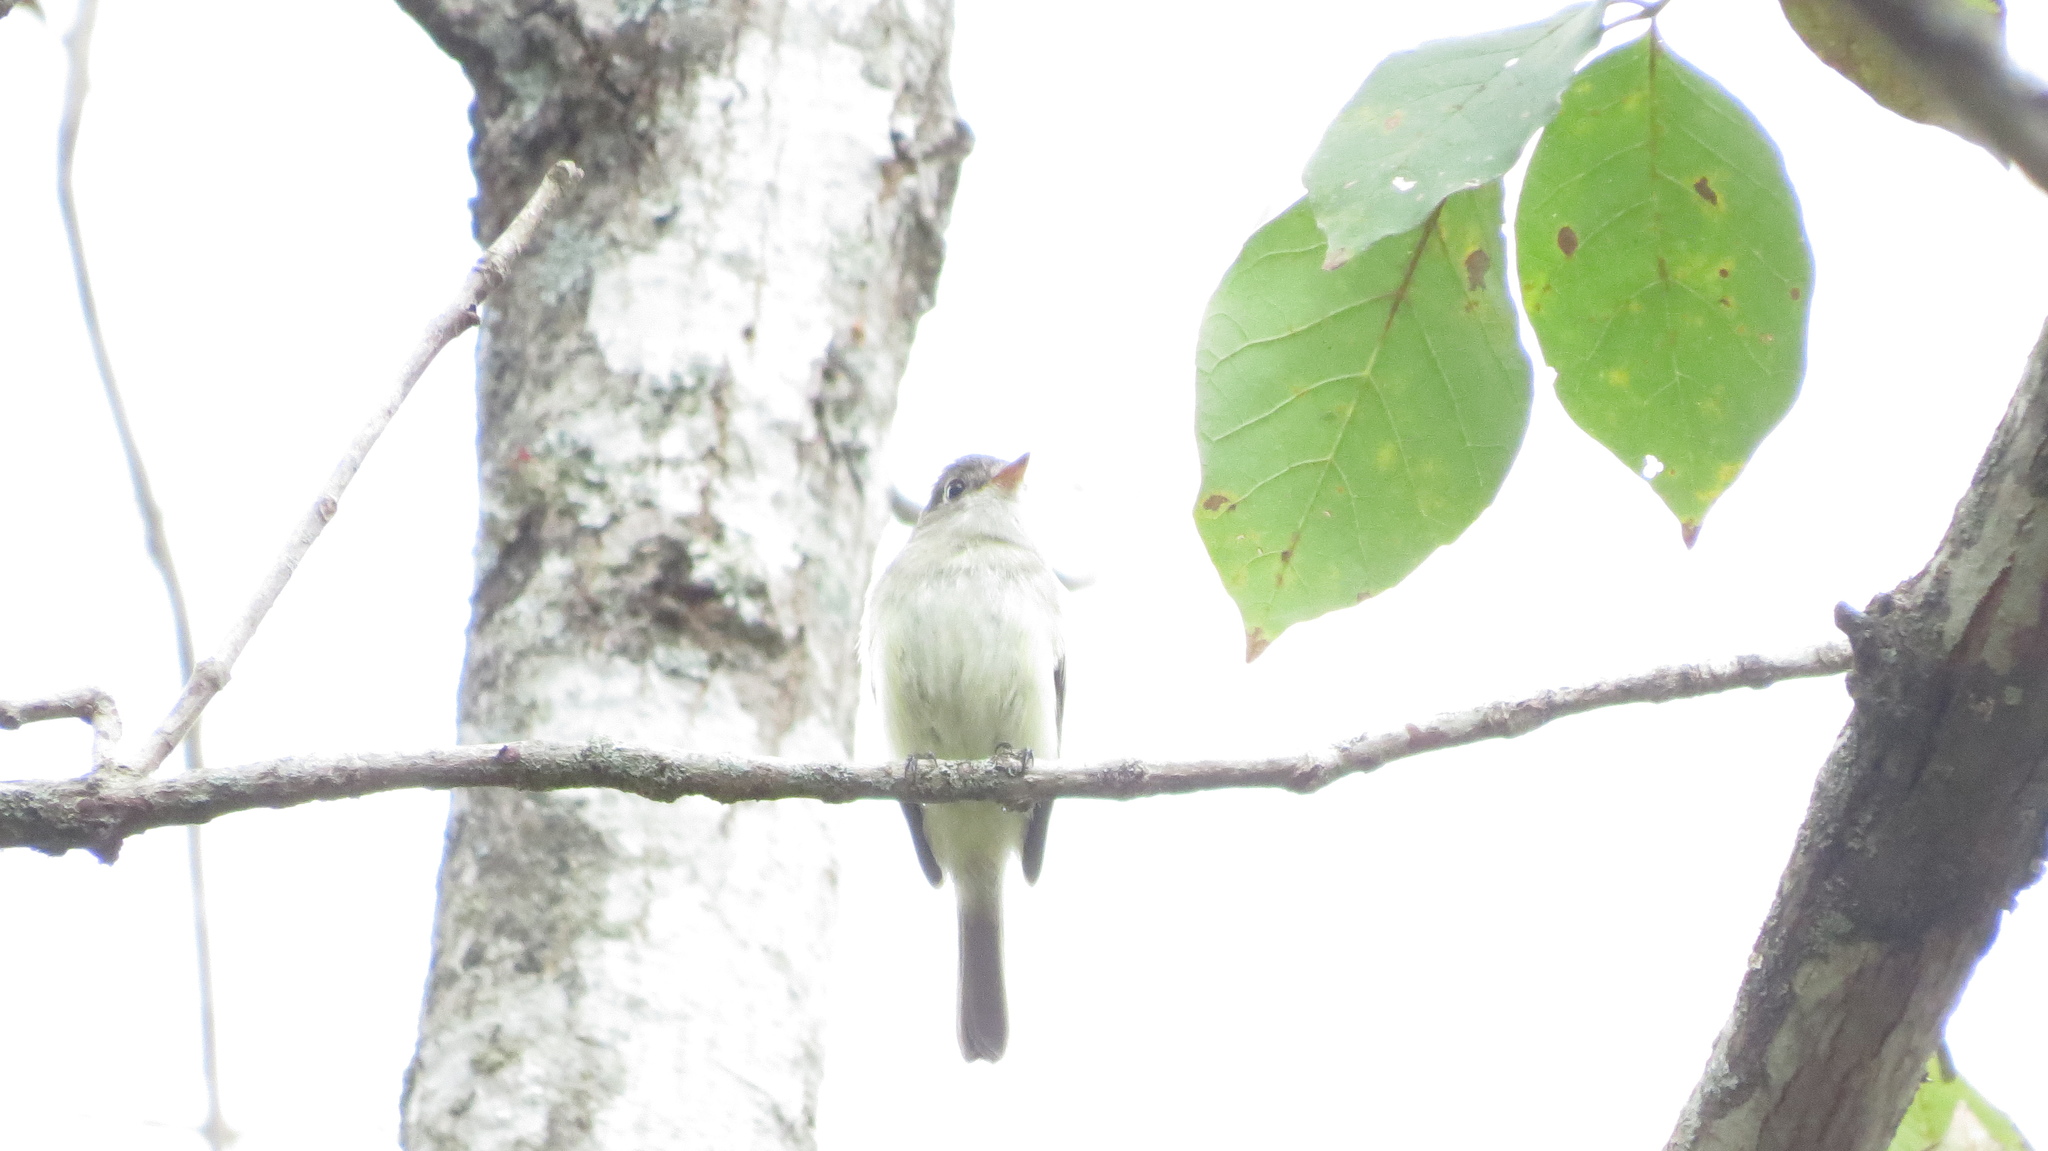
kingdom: Animalia
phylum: Chordata
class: Aves
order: Passeriformes
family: Tyrannidae
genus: Empidonax
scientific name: Empidonax minimus
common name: Least flycatcher
